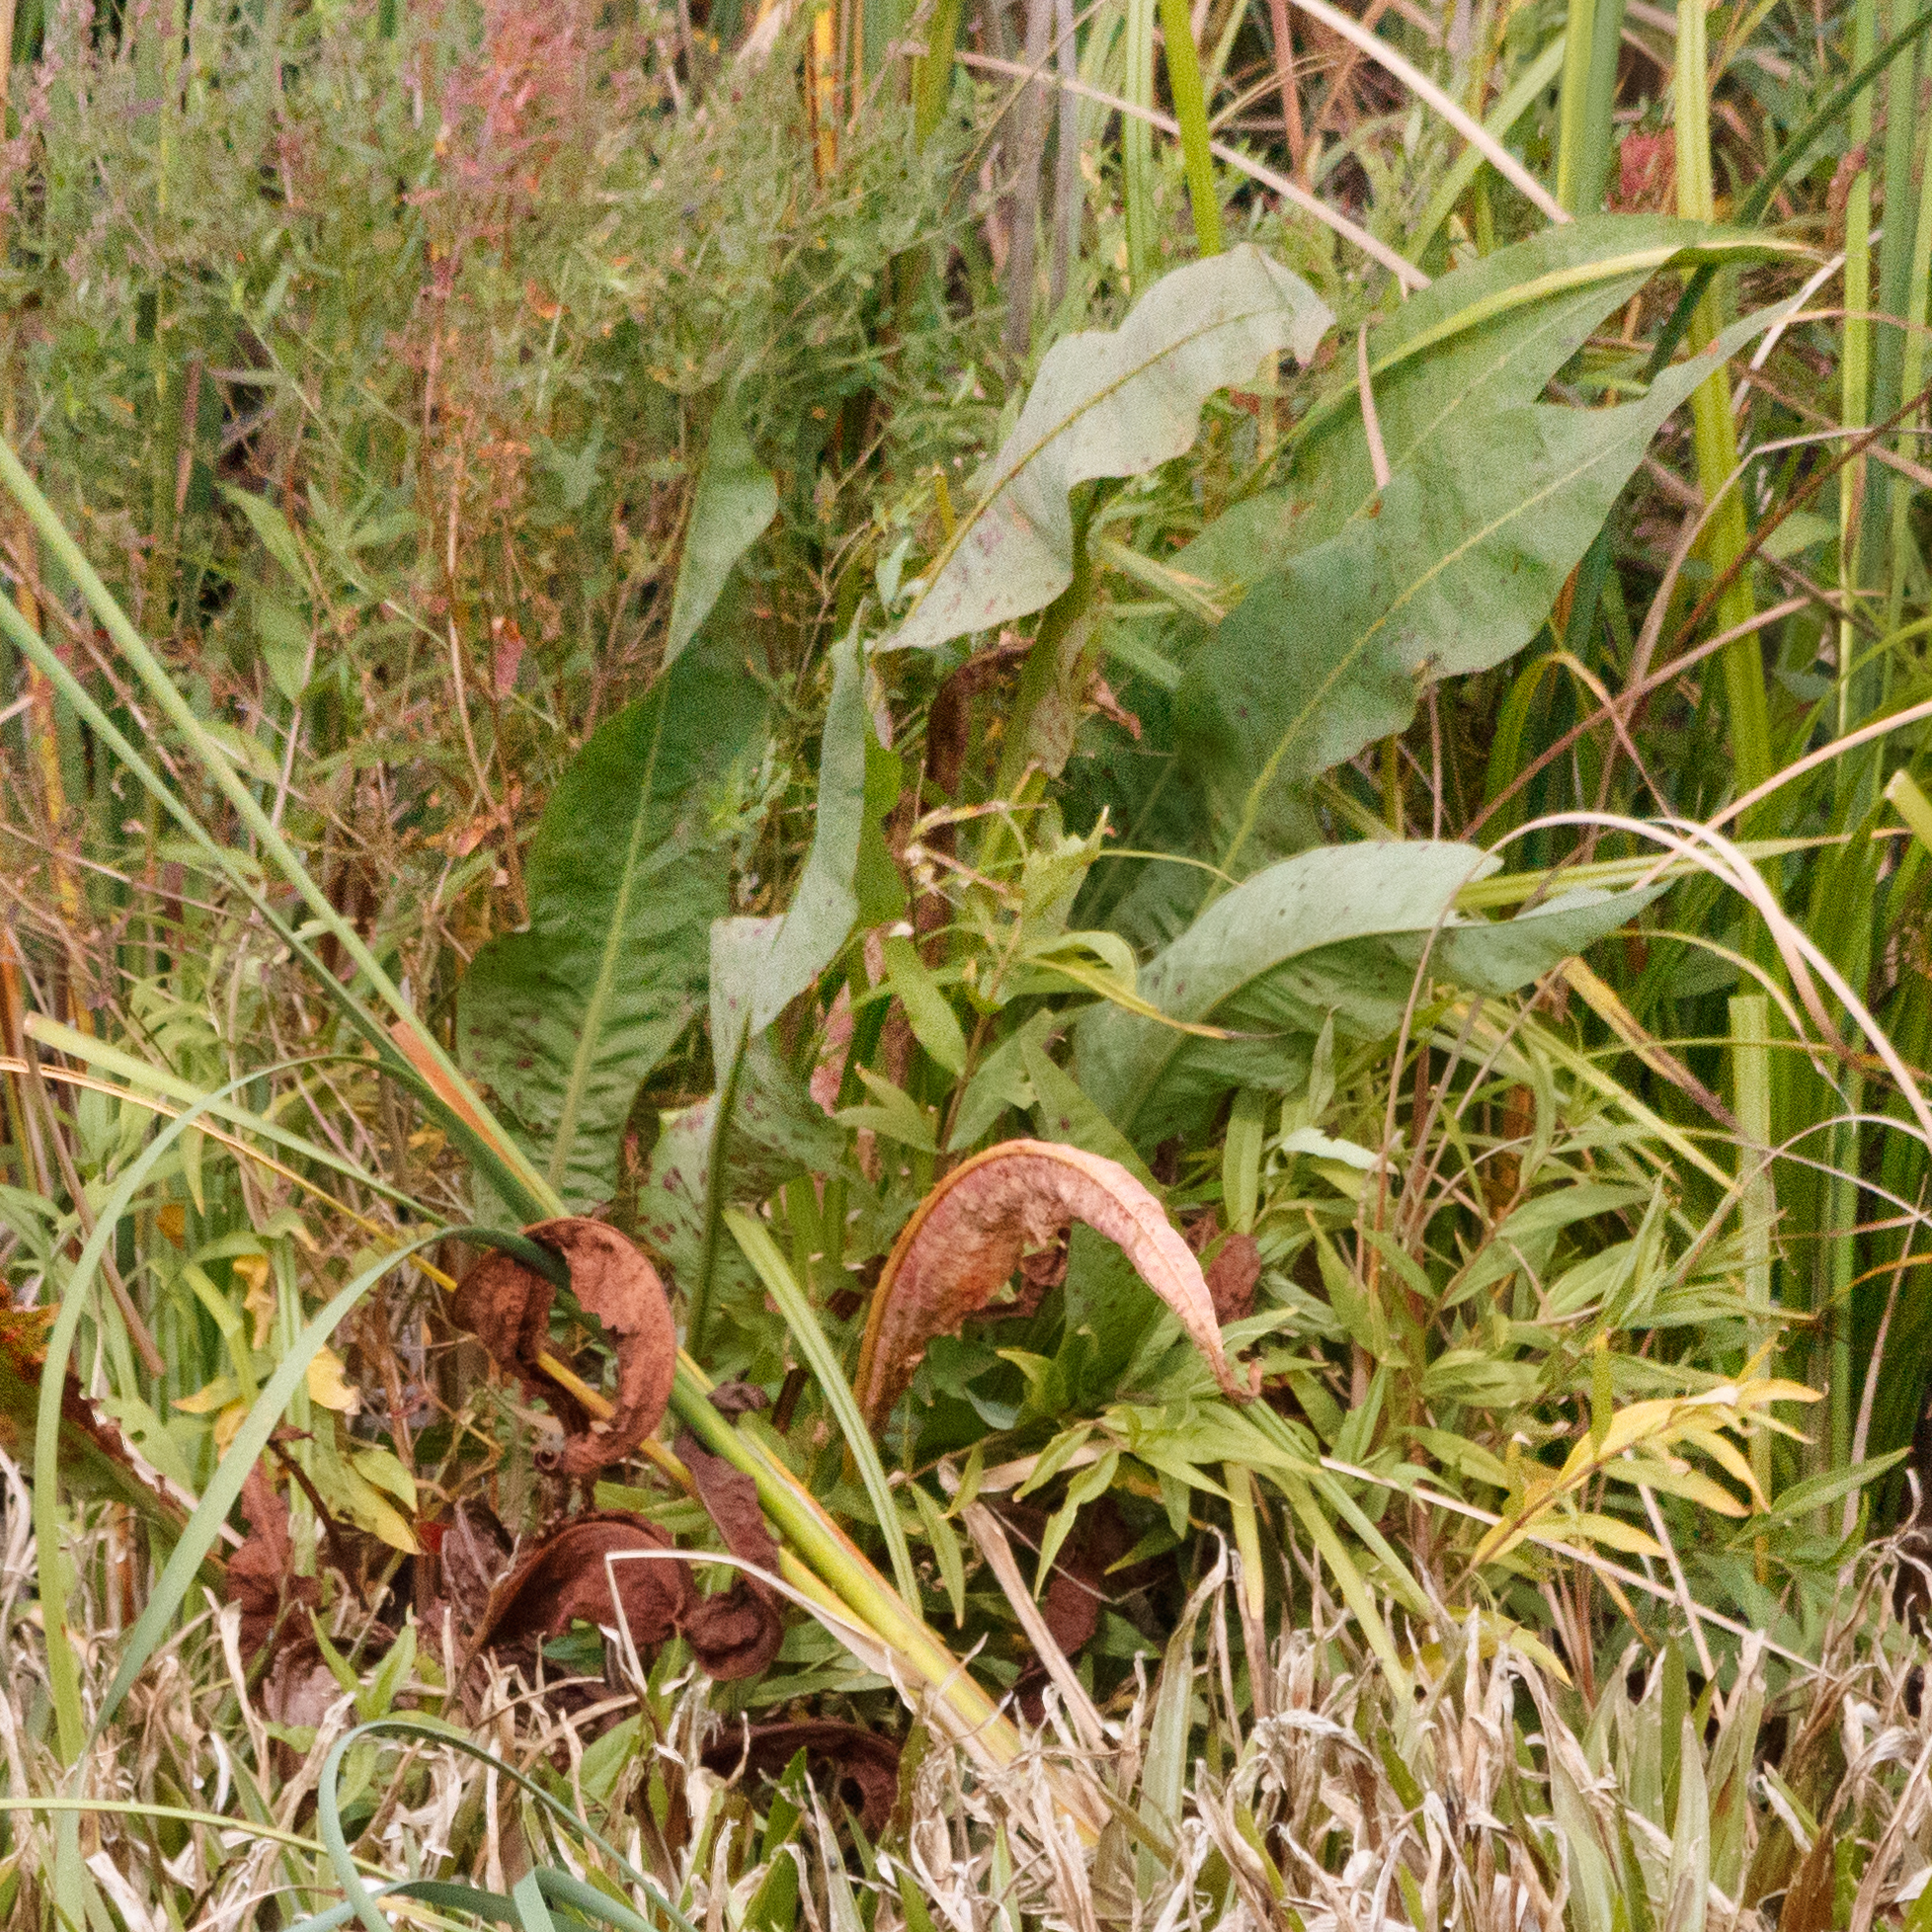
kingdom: Plantae
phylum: Tracheophyta
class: Magnoliopsida
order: Caryophyllales
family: Polygonaceae
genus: Rumex
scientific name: Rumex hydrolapathum
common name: Water dock
